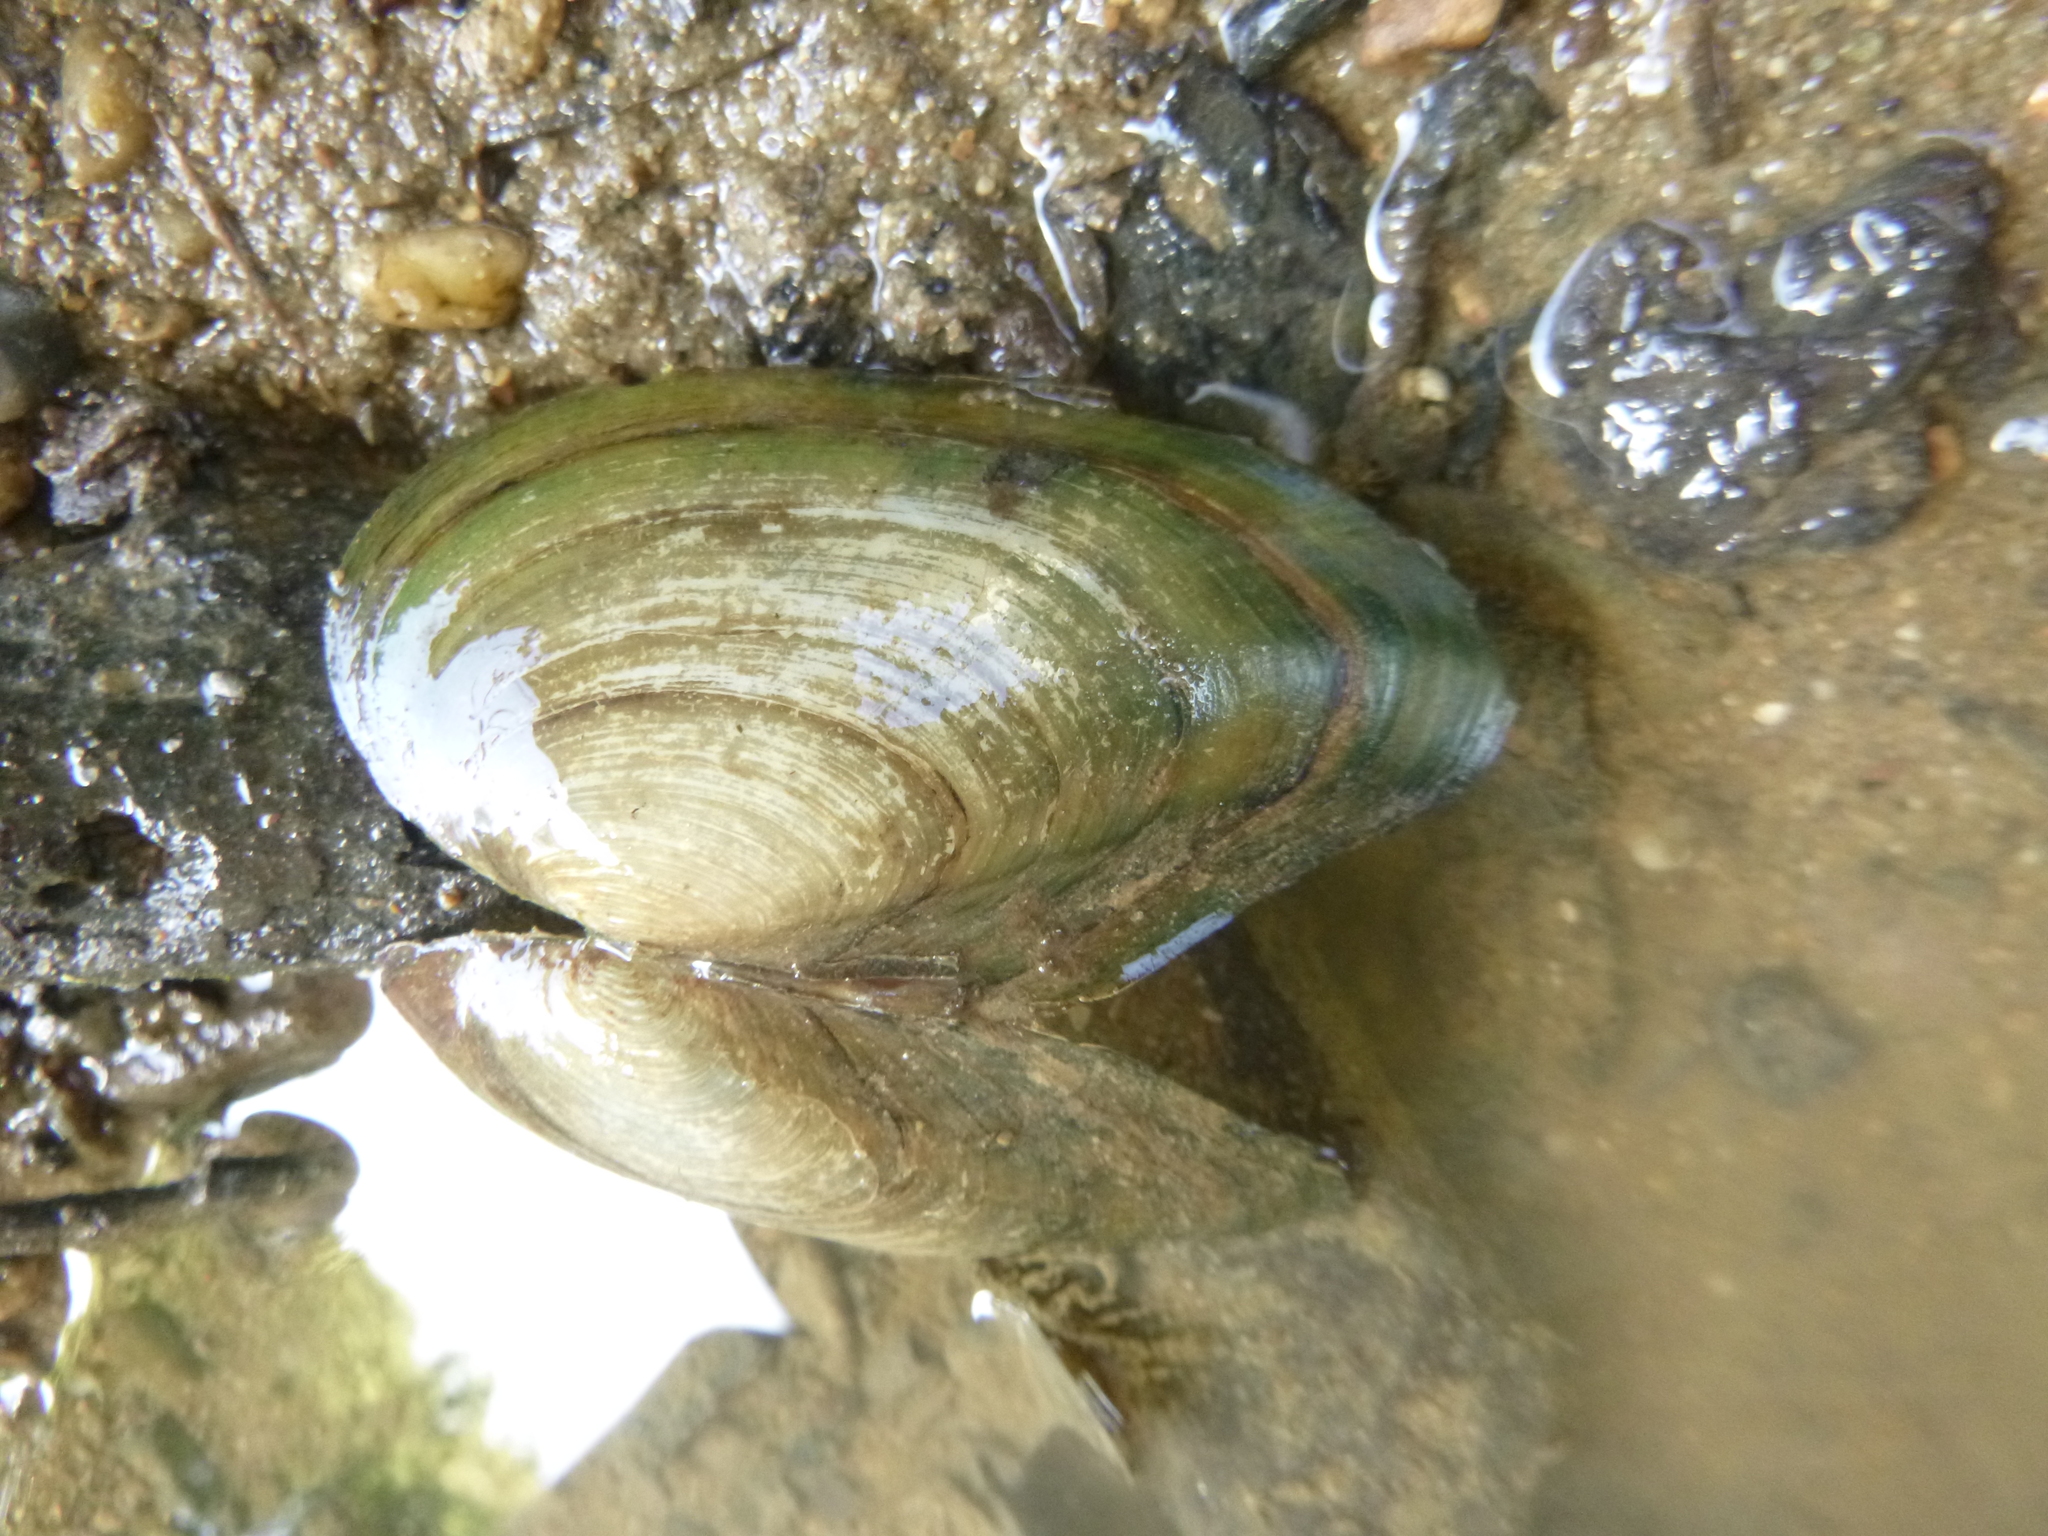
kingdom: Animalia
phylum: Mollusca
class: Bivalvia
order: Unionida
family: Unionidae
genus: Anodonta
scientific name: Anodonta anatina
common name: Duck mussel
